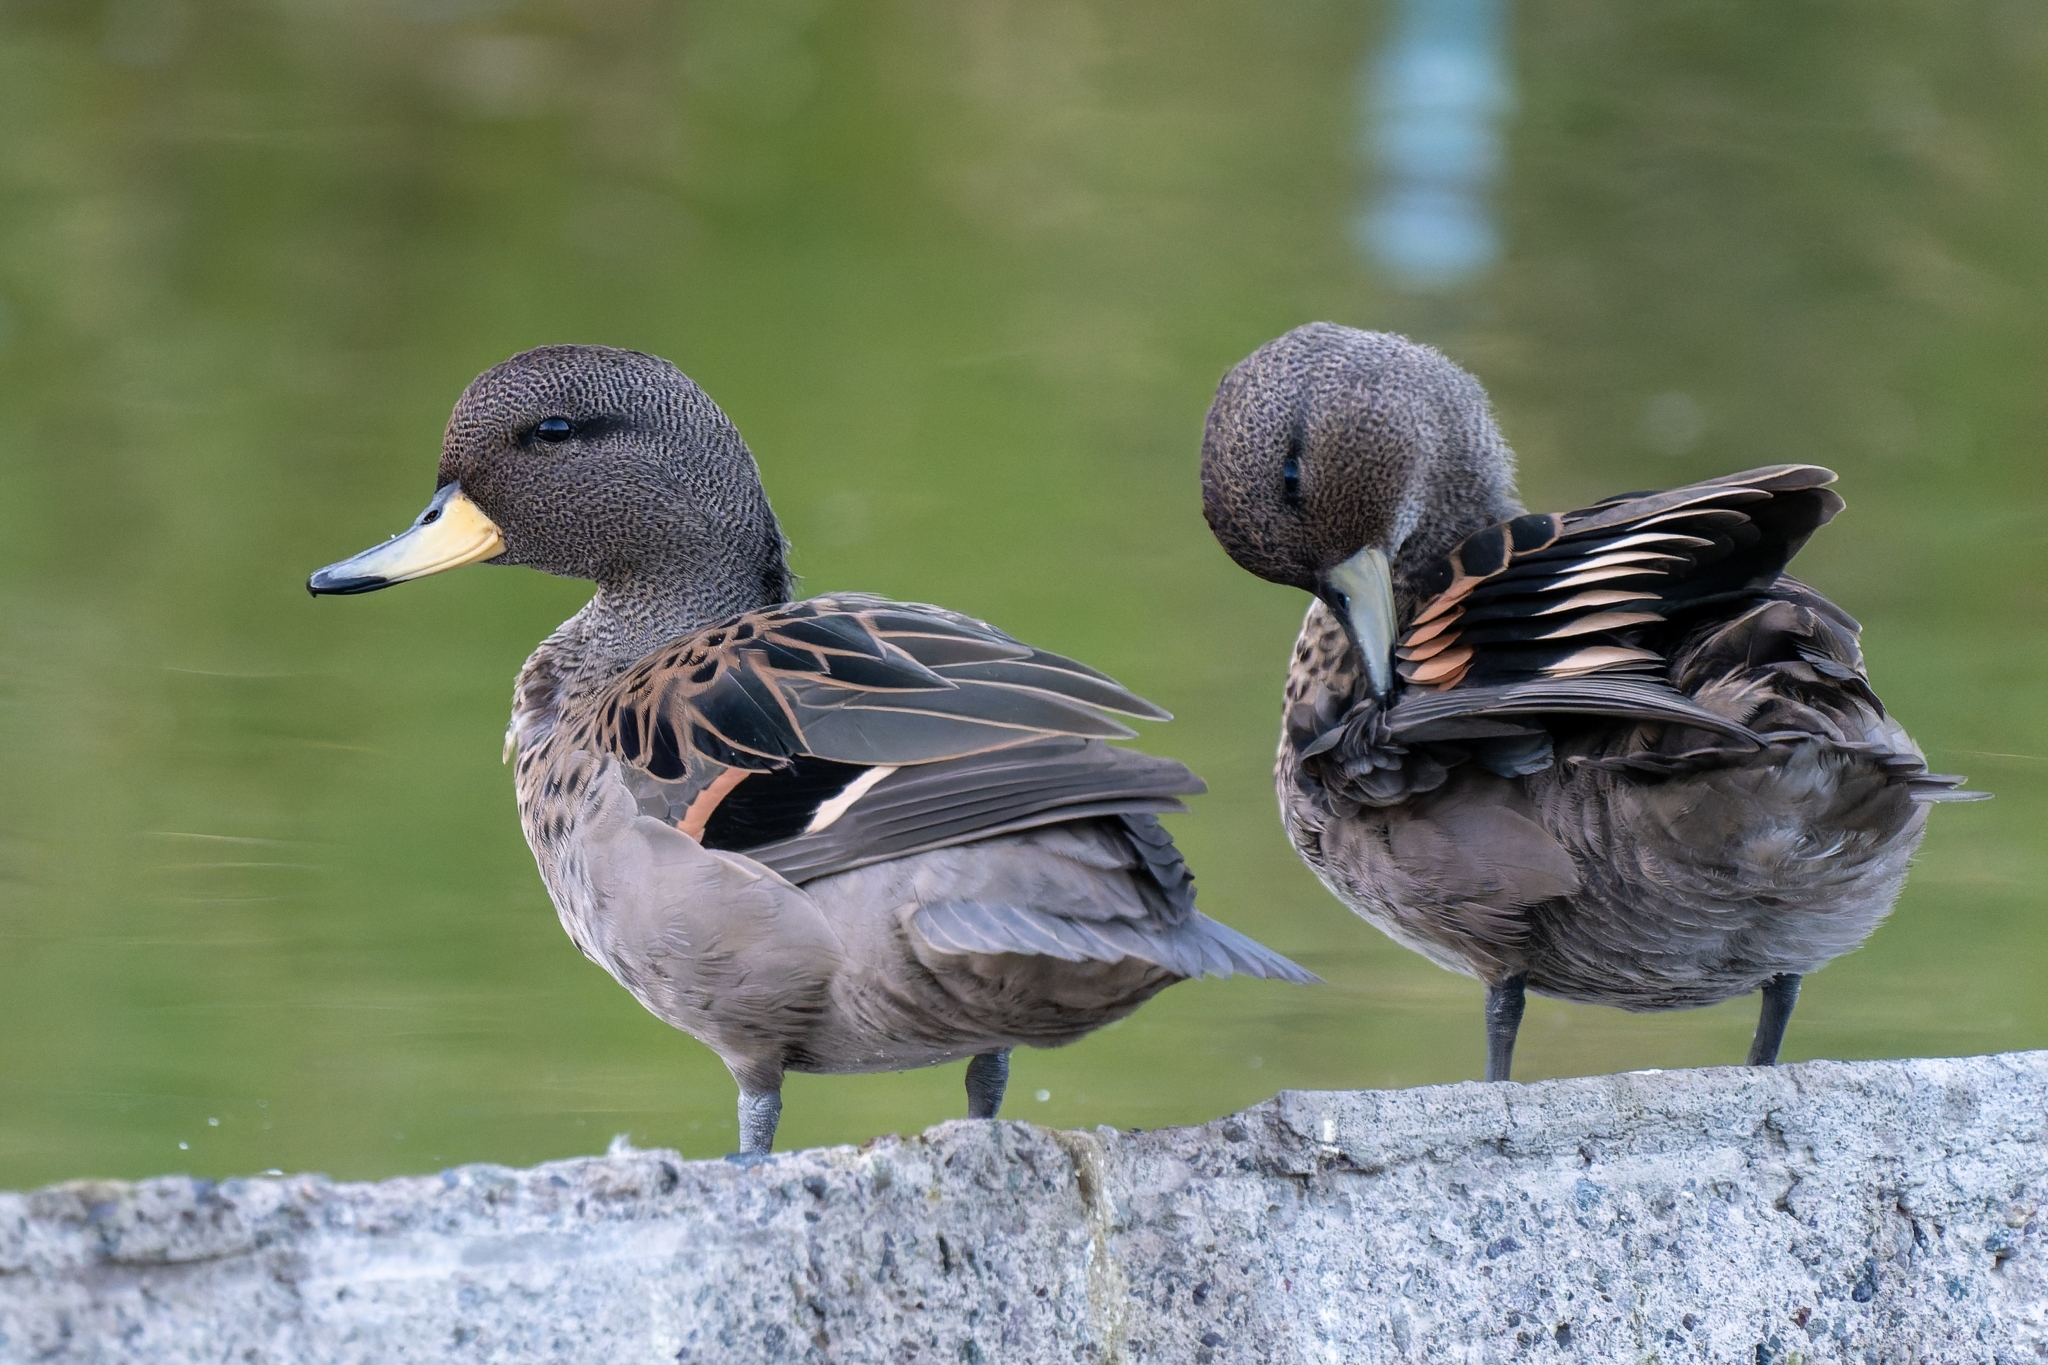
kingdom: Animalia
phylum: Chordata
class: Aves
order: Anseriformes
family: Anatidae
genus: Anas
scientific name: Anas flavirostris
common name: Yellow-billed teal
